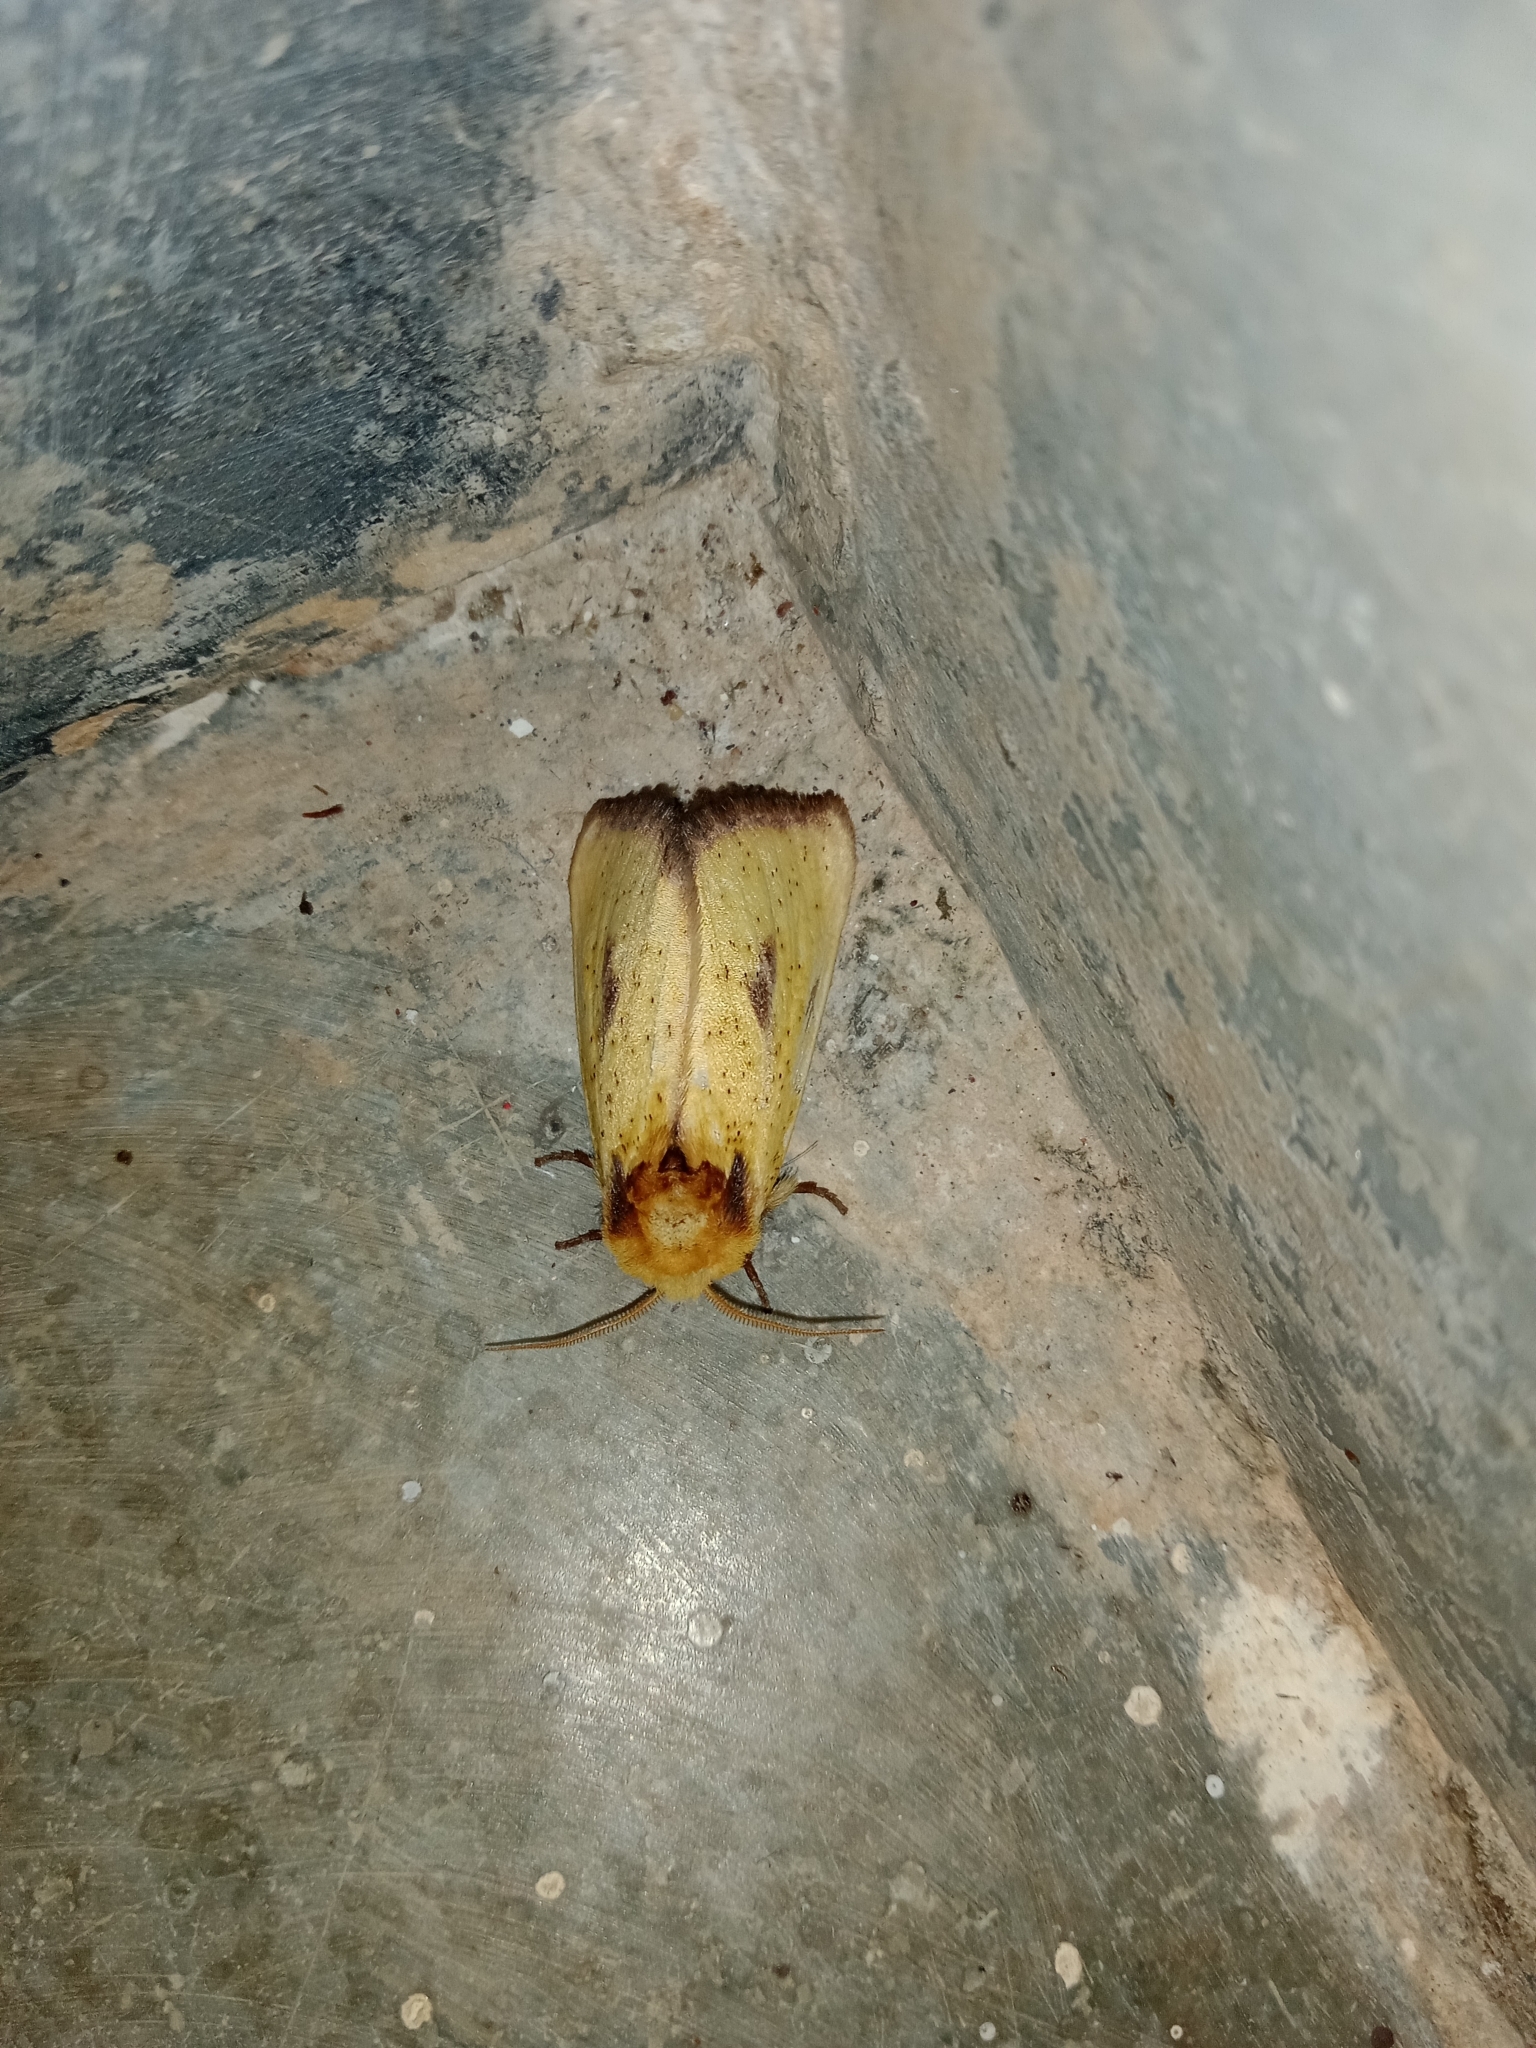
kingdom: Animalia
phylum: Arthropoda
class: Insecta
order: Lepidoptera
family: Notodontidae
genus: Antheua
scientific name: Antheua servula
